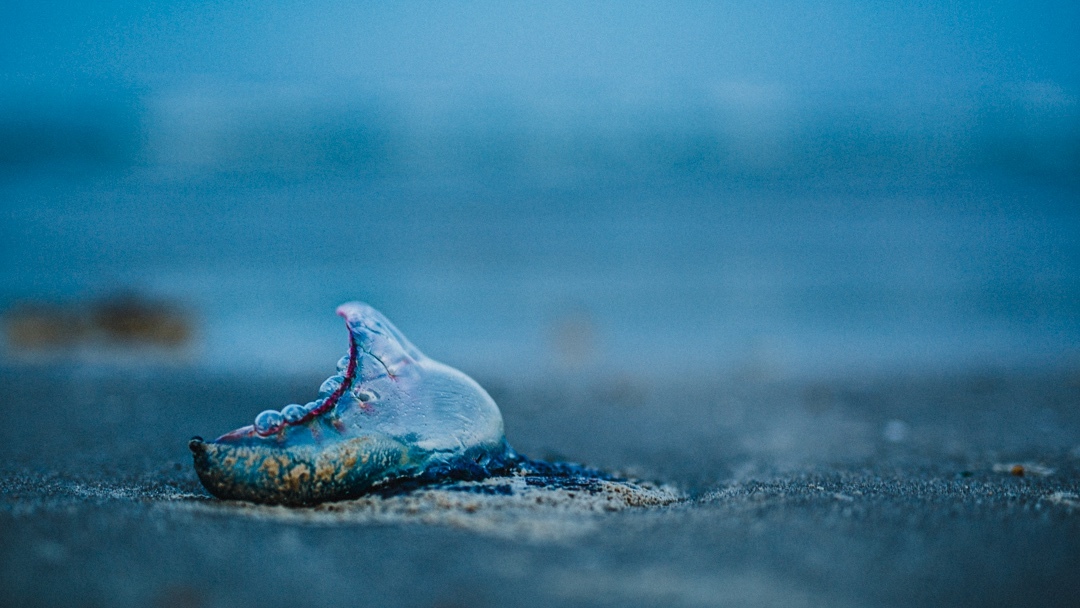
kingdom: Animalia
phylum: Cnidaria
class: Hydrozoa
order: Siphonophorae
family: Physaliidae
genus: Physalia
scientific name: Physalia physalis
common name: Portuguese man-of-war
